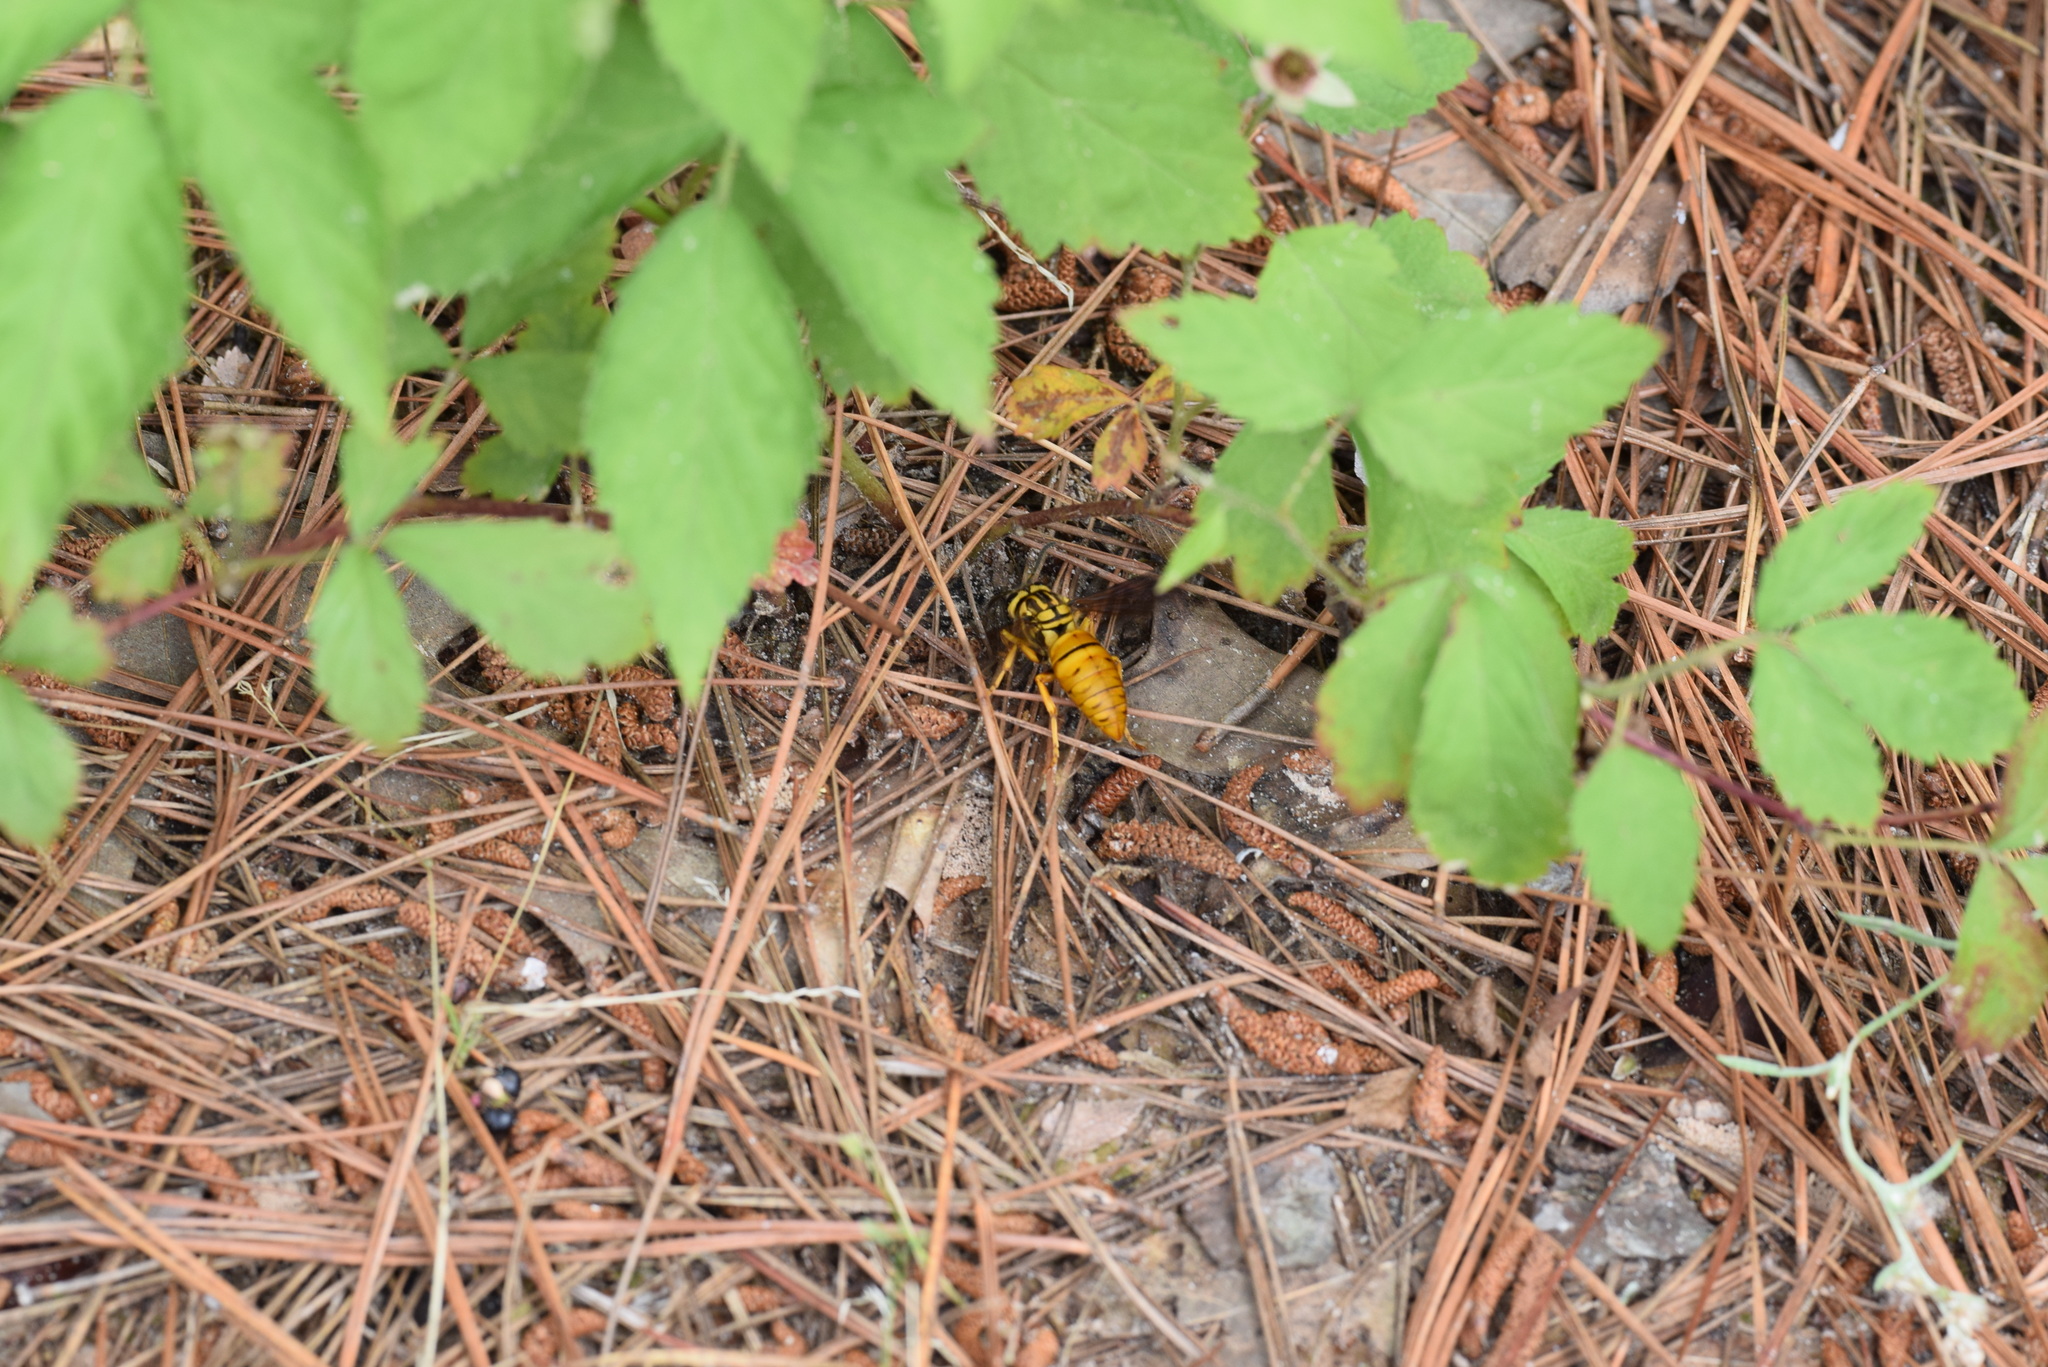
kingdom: Animalia
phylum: Arthropoda
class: Insecta
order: Hymenoptera
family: Vespidae
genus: Vespula
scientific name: Vespula squamosa
